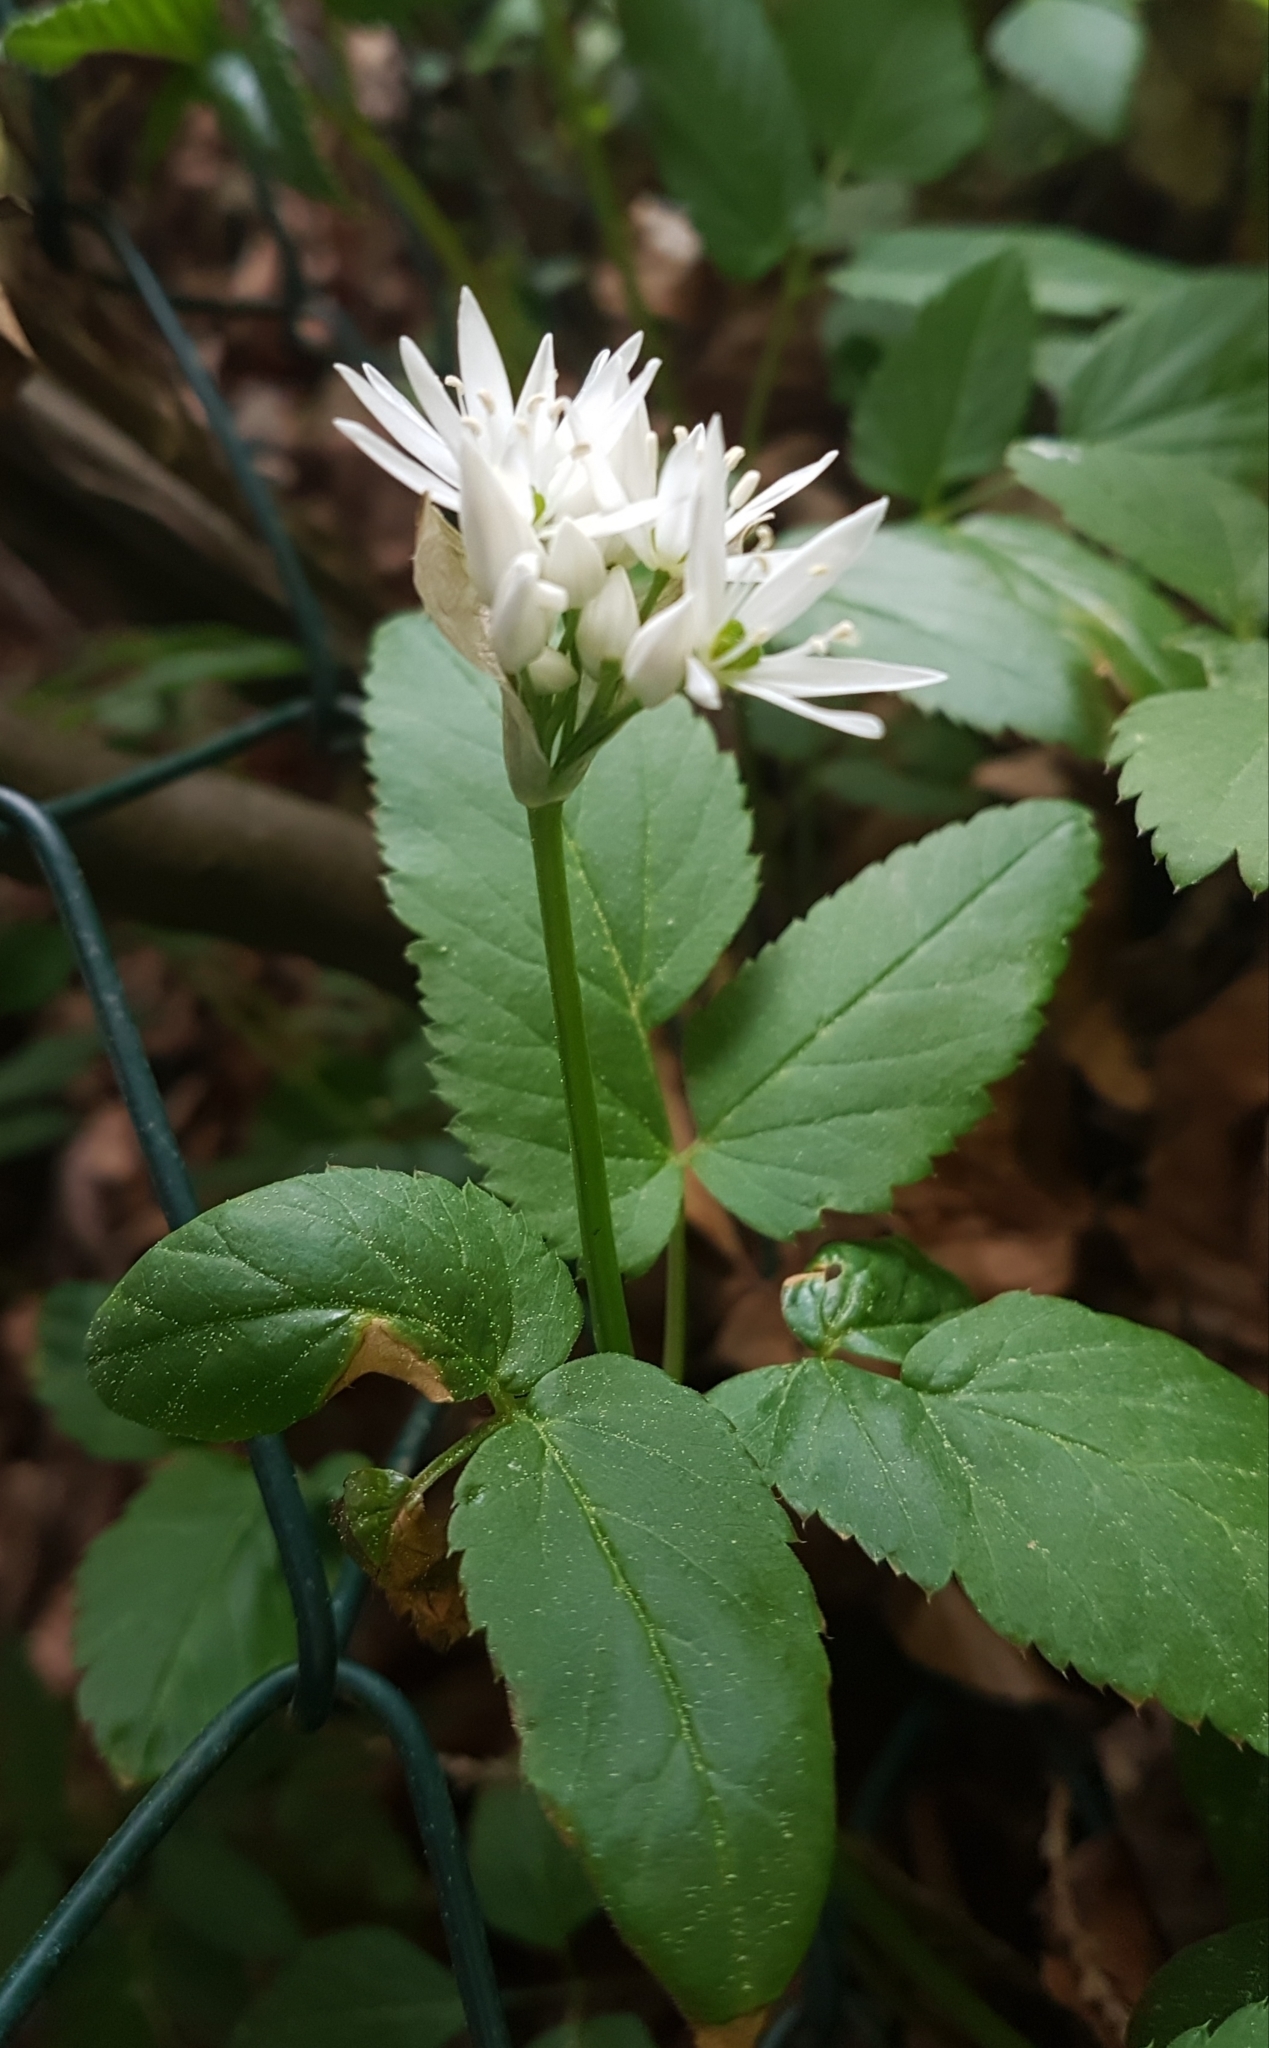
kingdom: Plantae
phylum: Tracheophyta
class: Liliopsida
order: Asparagales
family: Amaryllidaceae
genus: Allium
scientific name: Allium ursinum
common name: Ramsons
